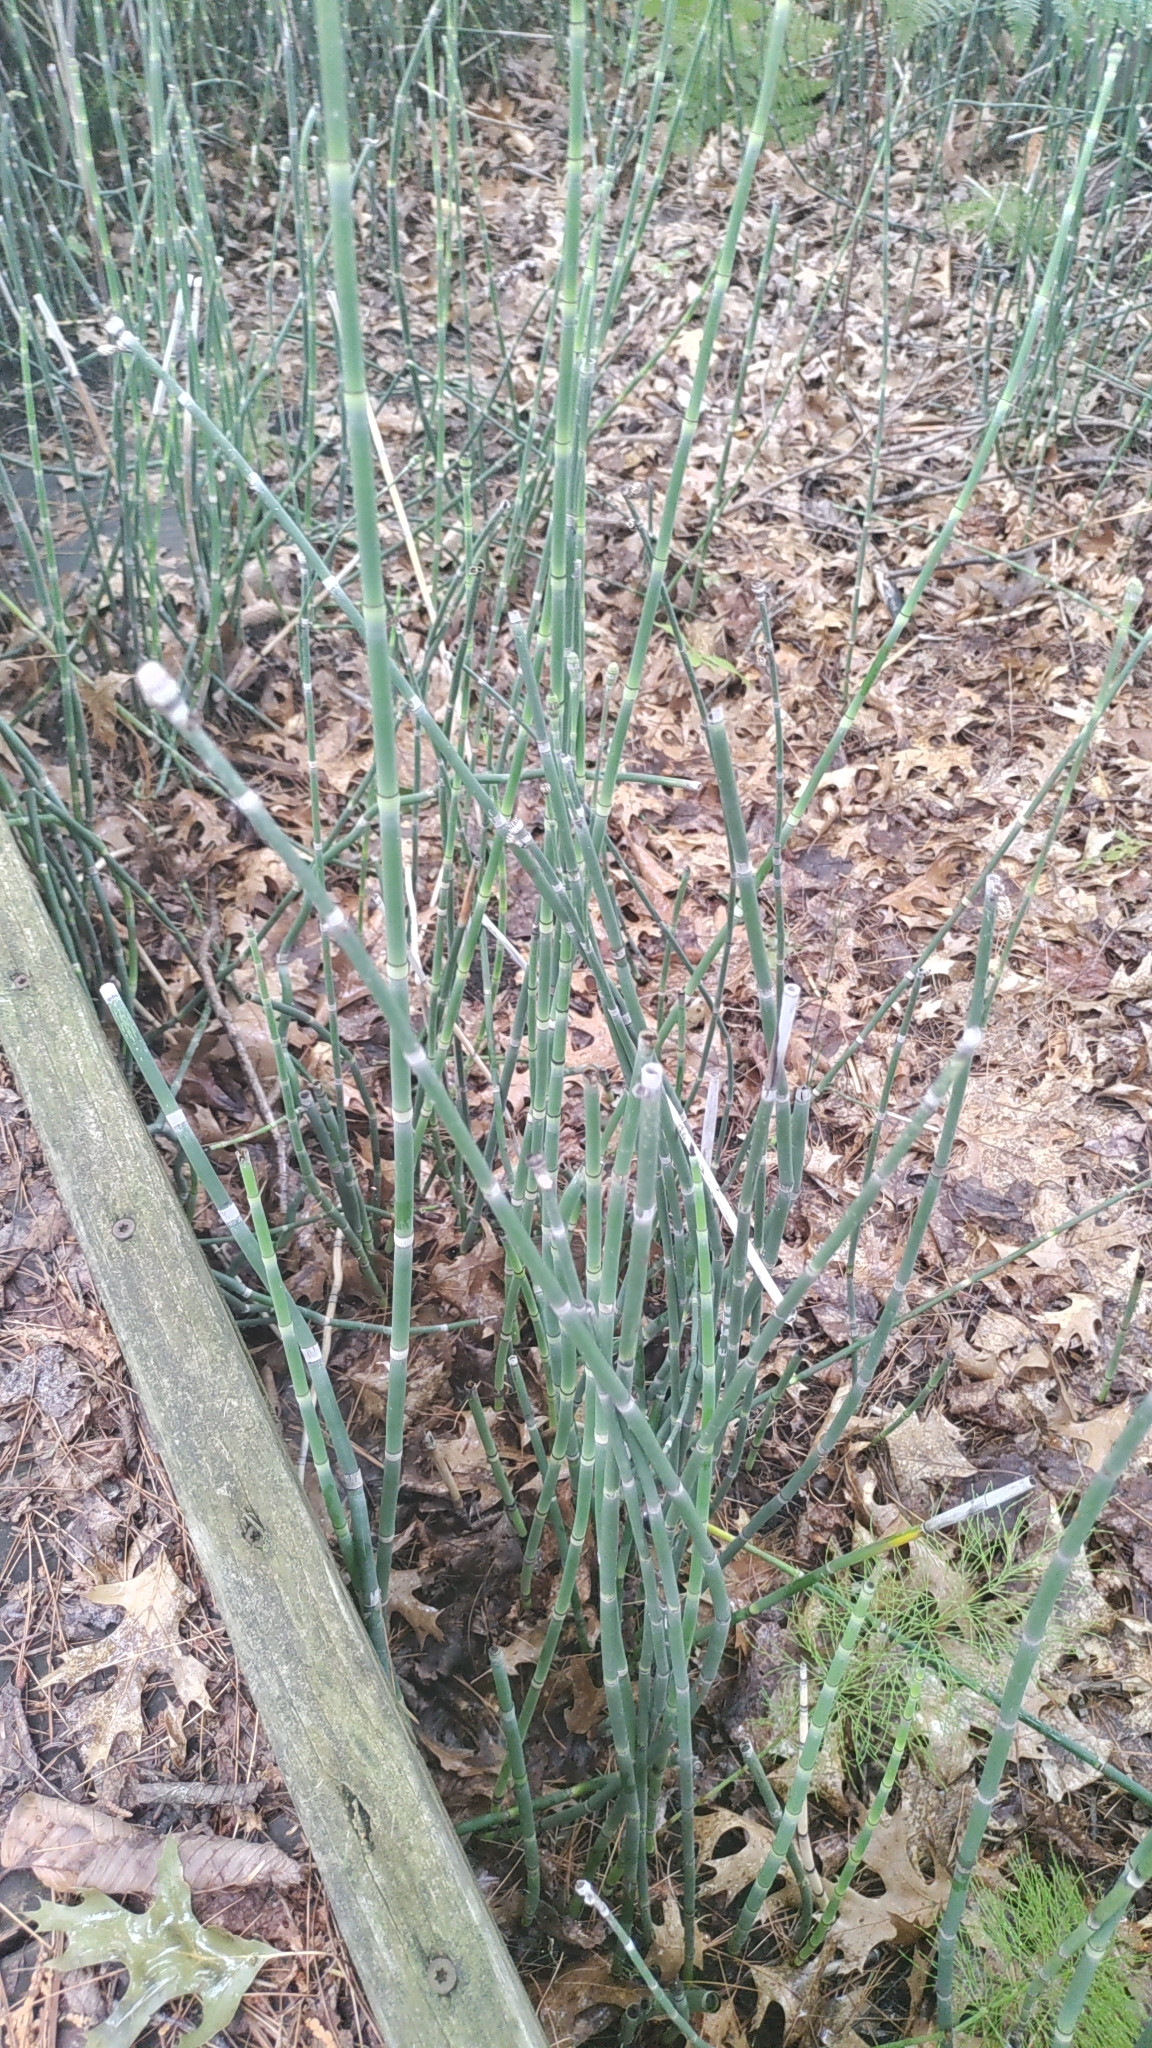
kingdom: Plantae
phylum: Tracheophyta
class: Polypodiopsida
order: Equisetales
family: Equisetaceae
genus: Equisetum
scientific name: Equisetum hyemale
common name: Rough horsetail
